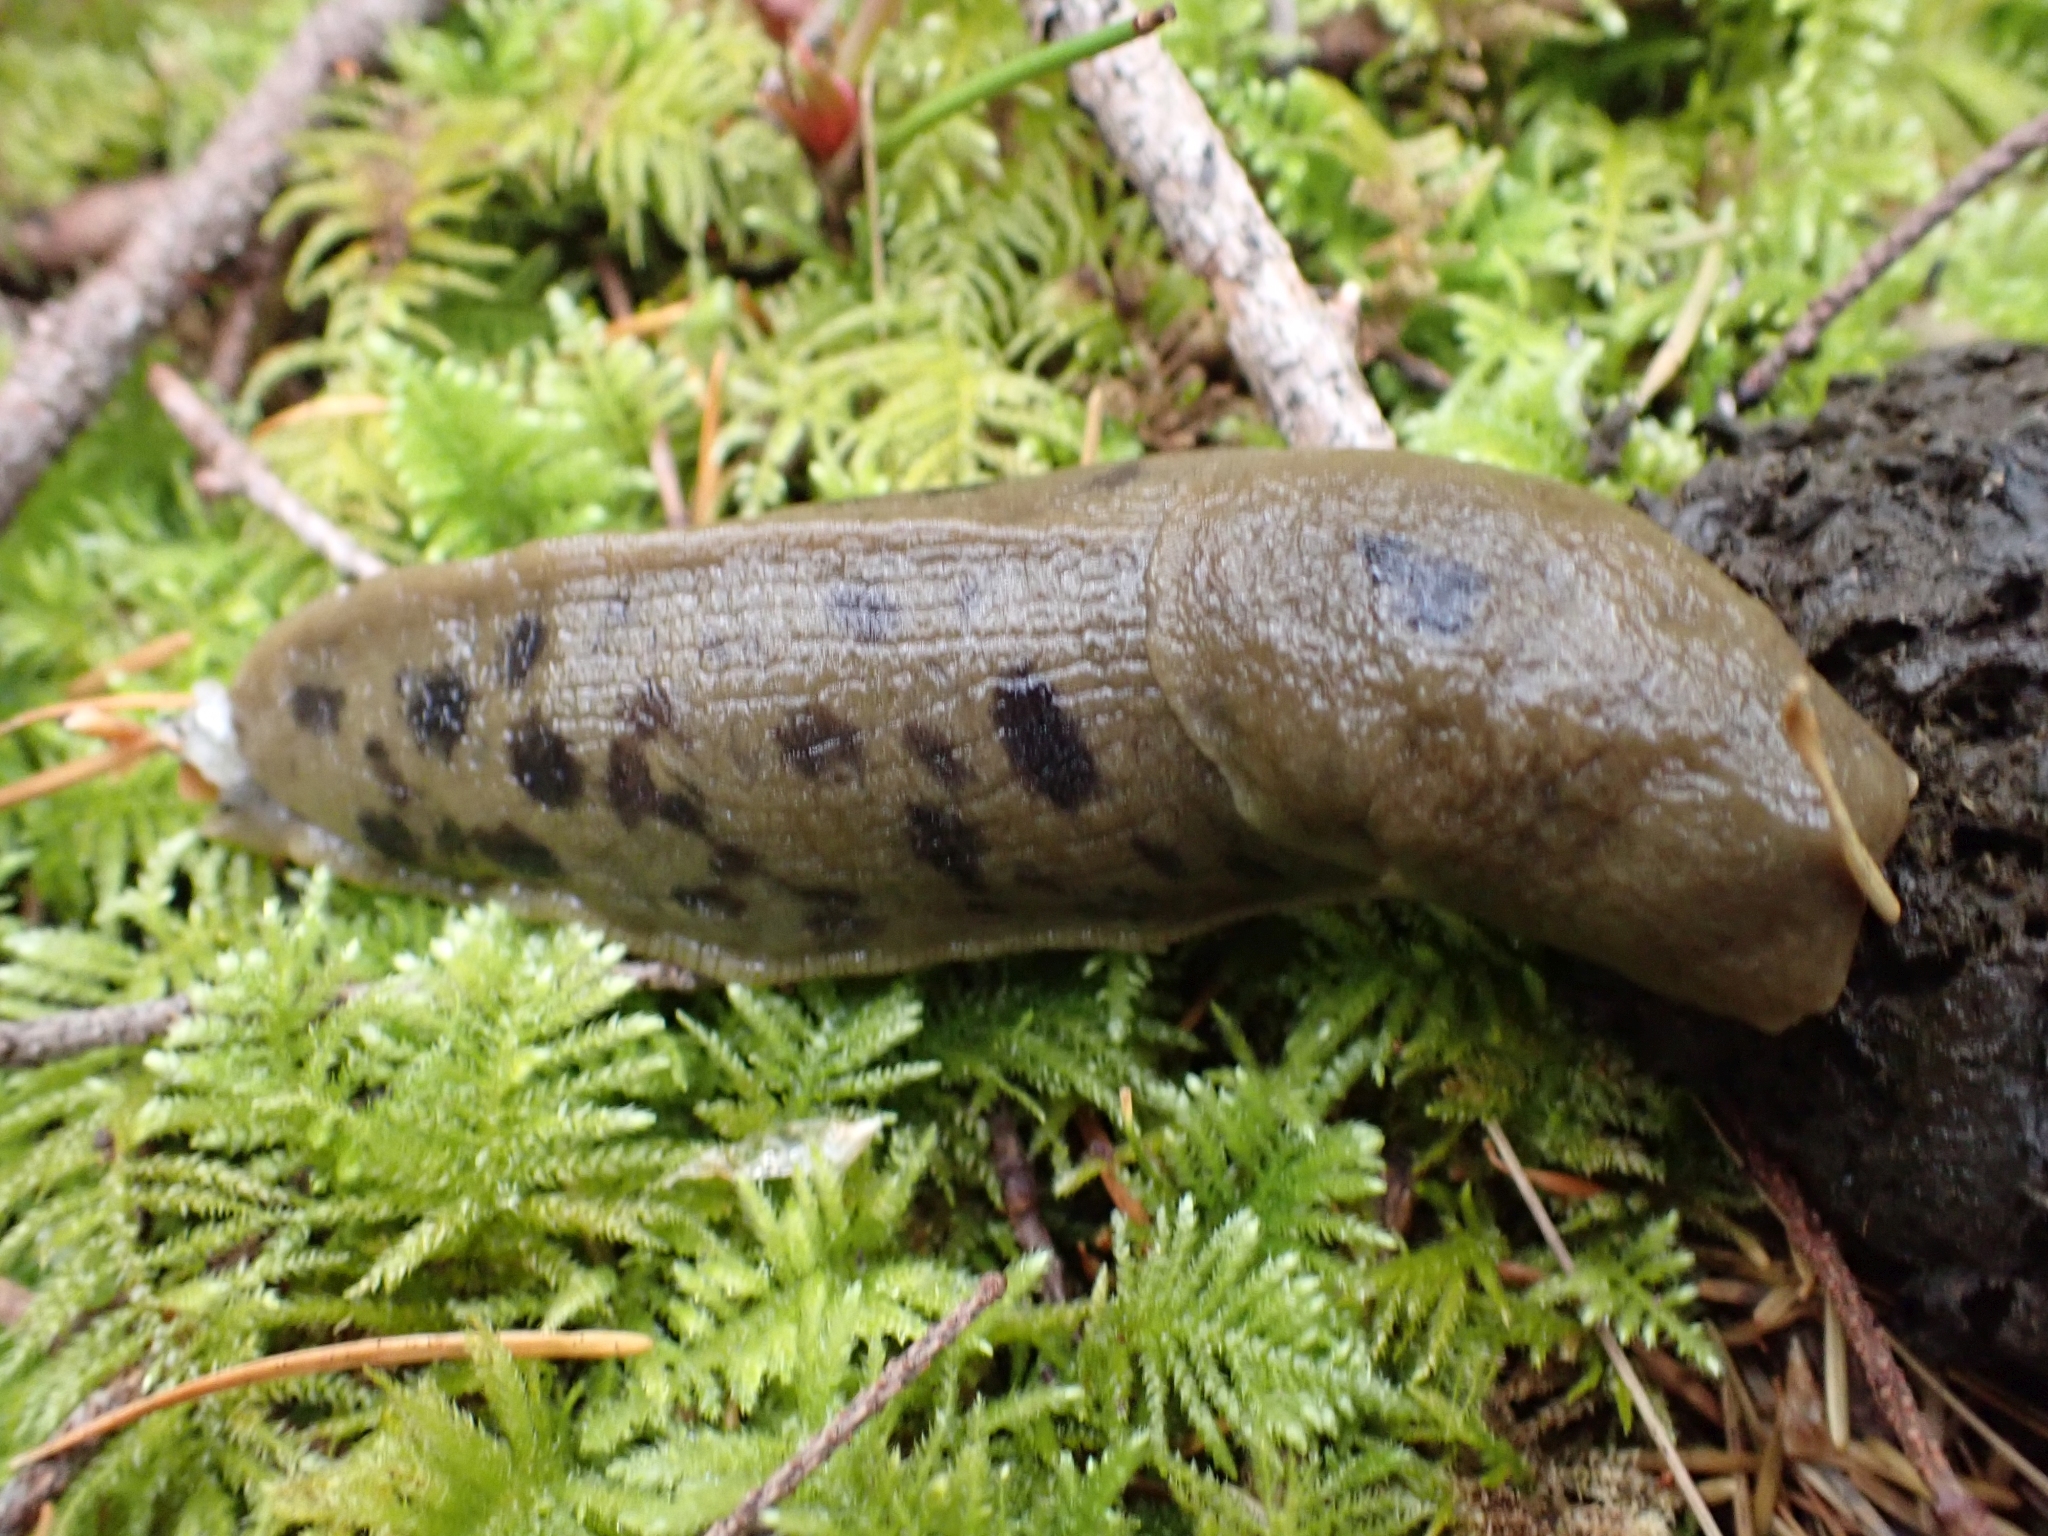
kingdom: Animalia
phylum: Mollusca
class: Gastropoda
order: Stylommatophora
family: Ariolimacidae
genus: Ariolimax
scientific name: Ariolimax columbianus
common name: Pacific banana slug
